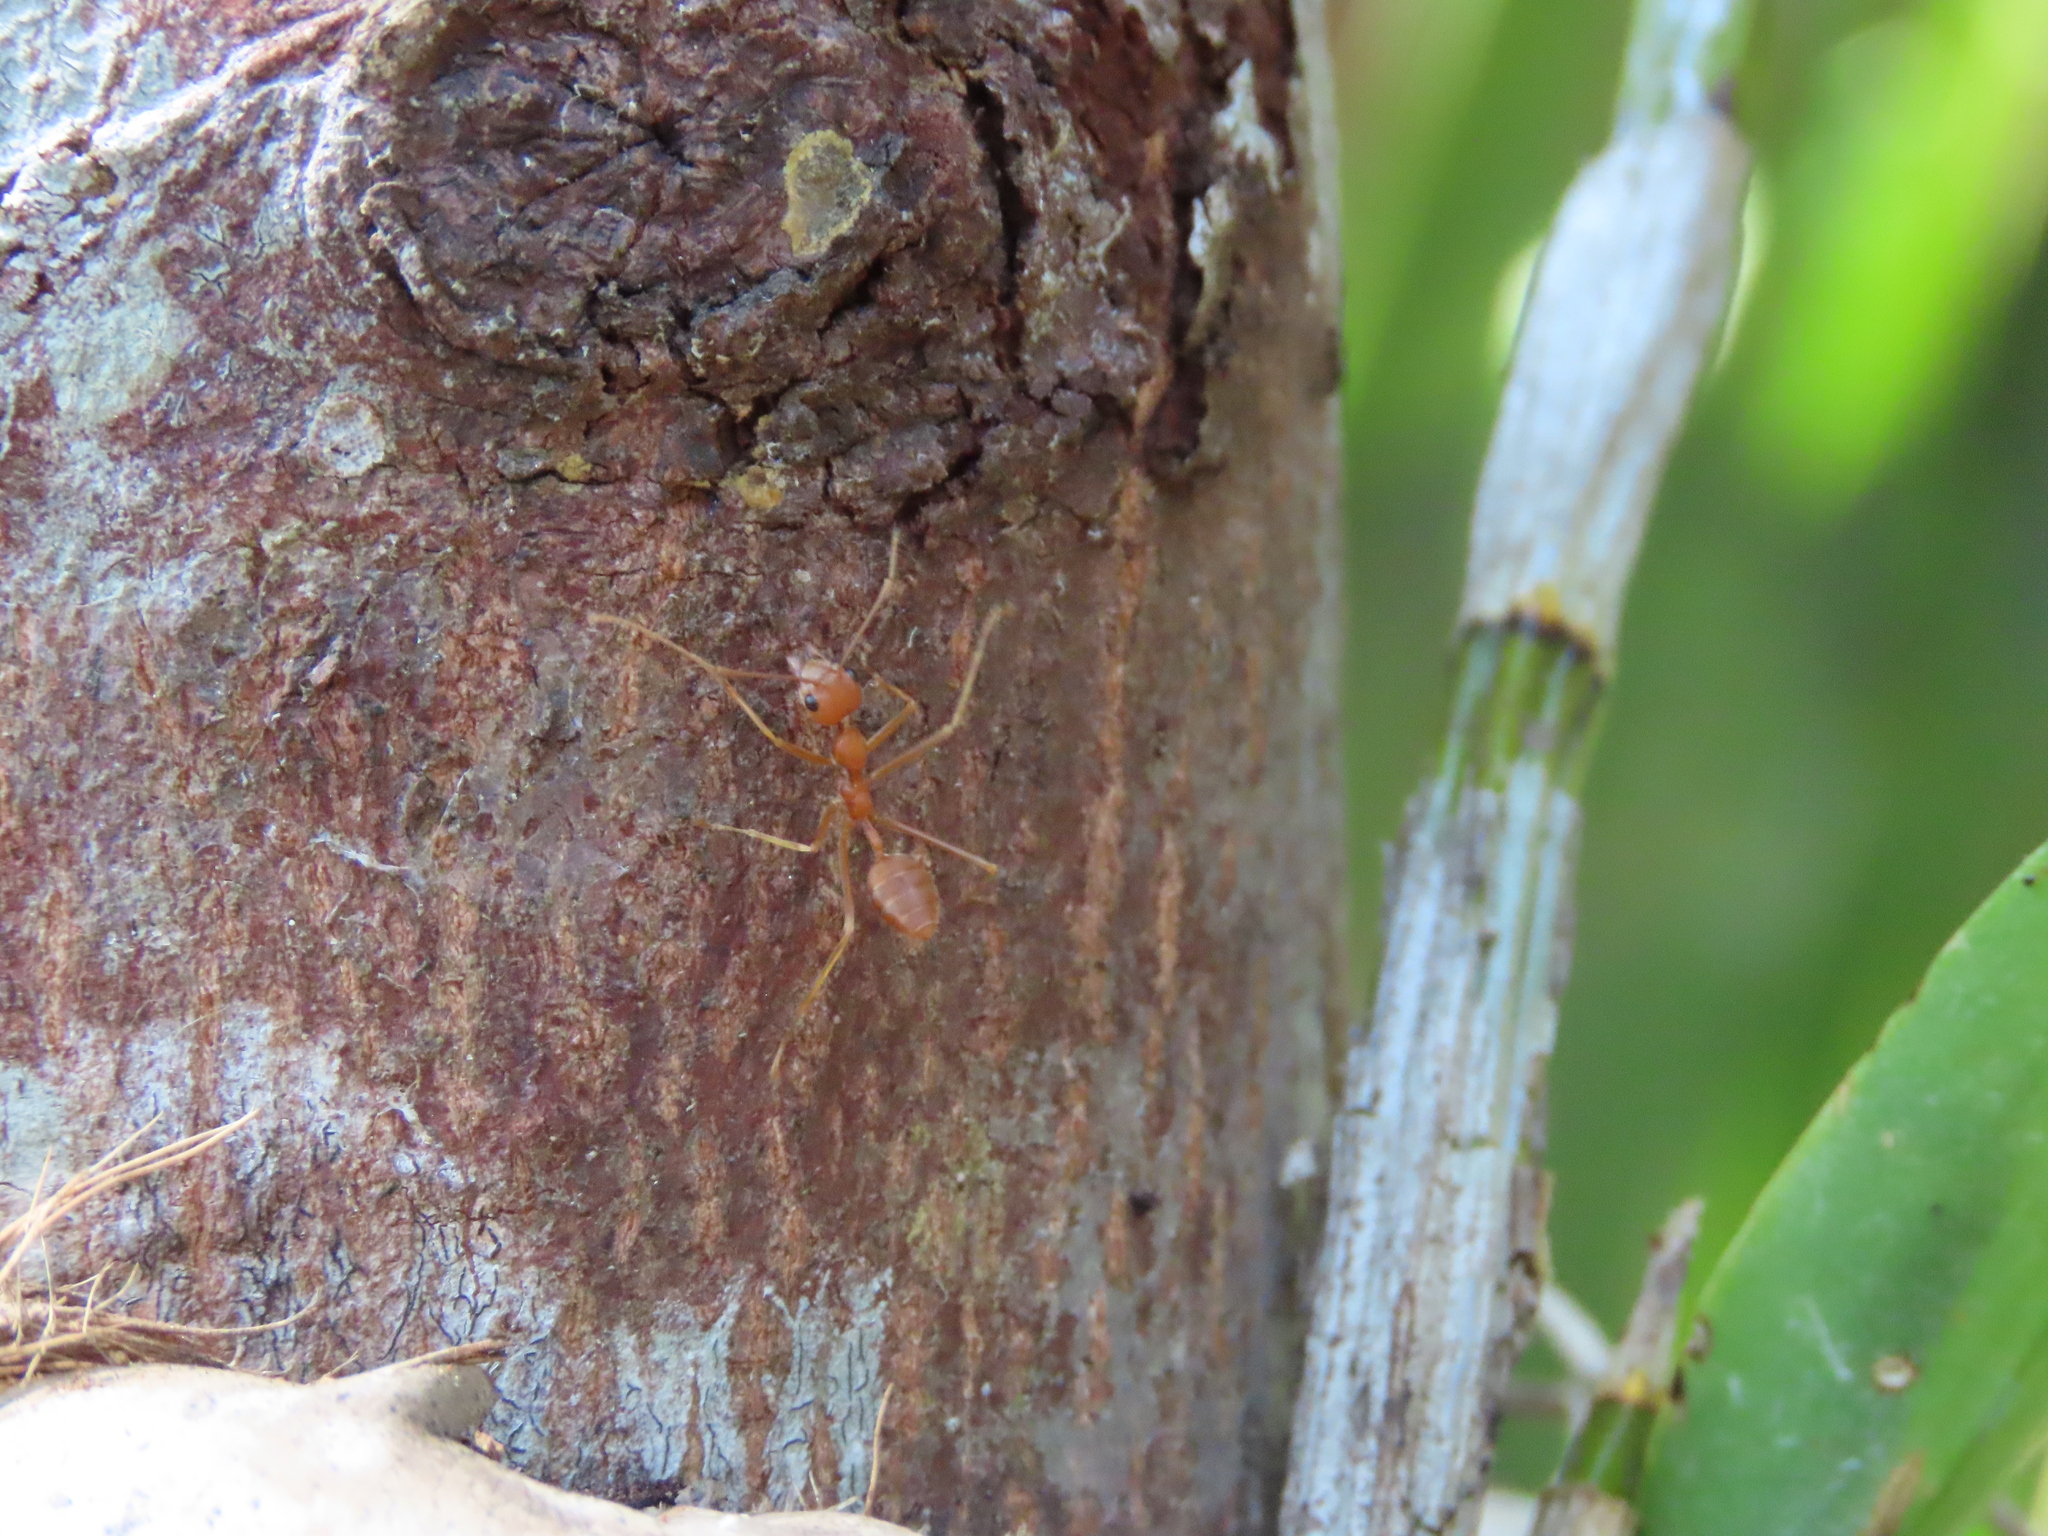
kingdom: Animalia
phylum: Arthropoda
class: Insecta
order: Hymenoptera
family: Formicidae
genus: Oecophylla
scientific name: Oecophylla smaragdina
